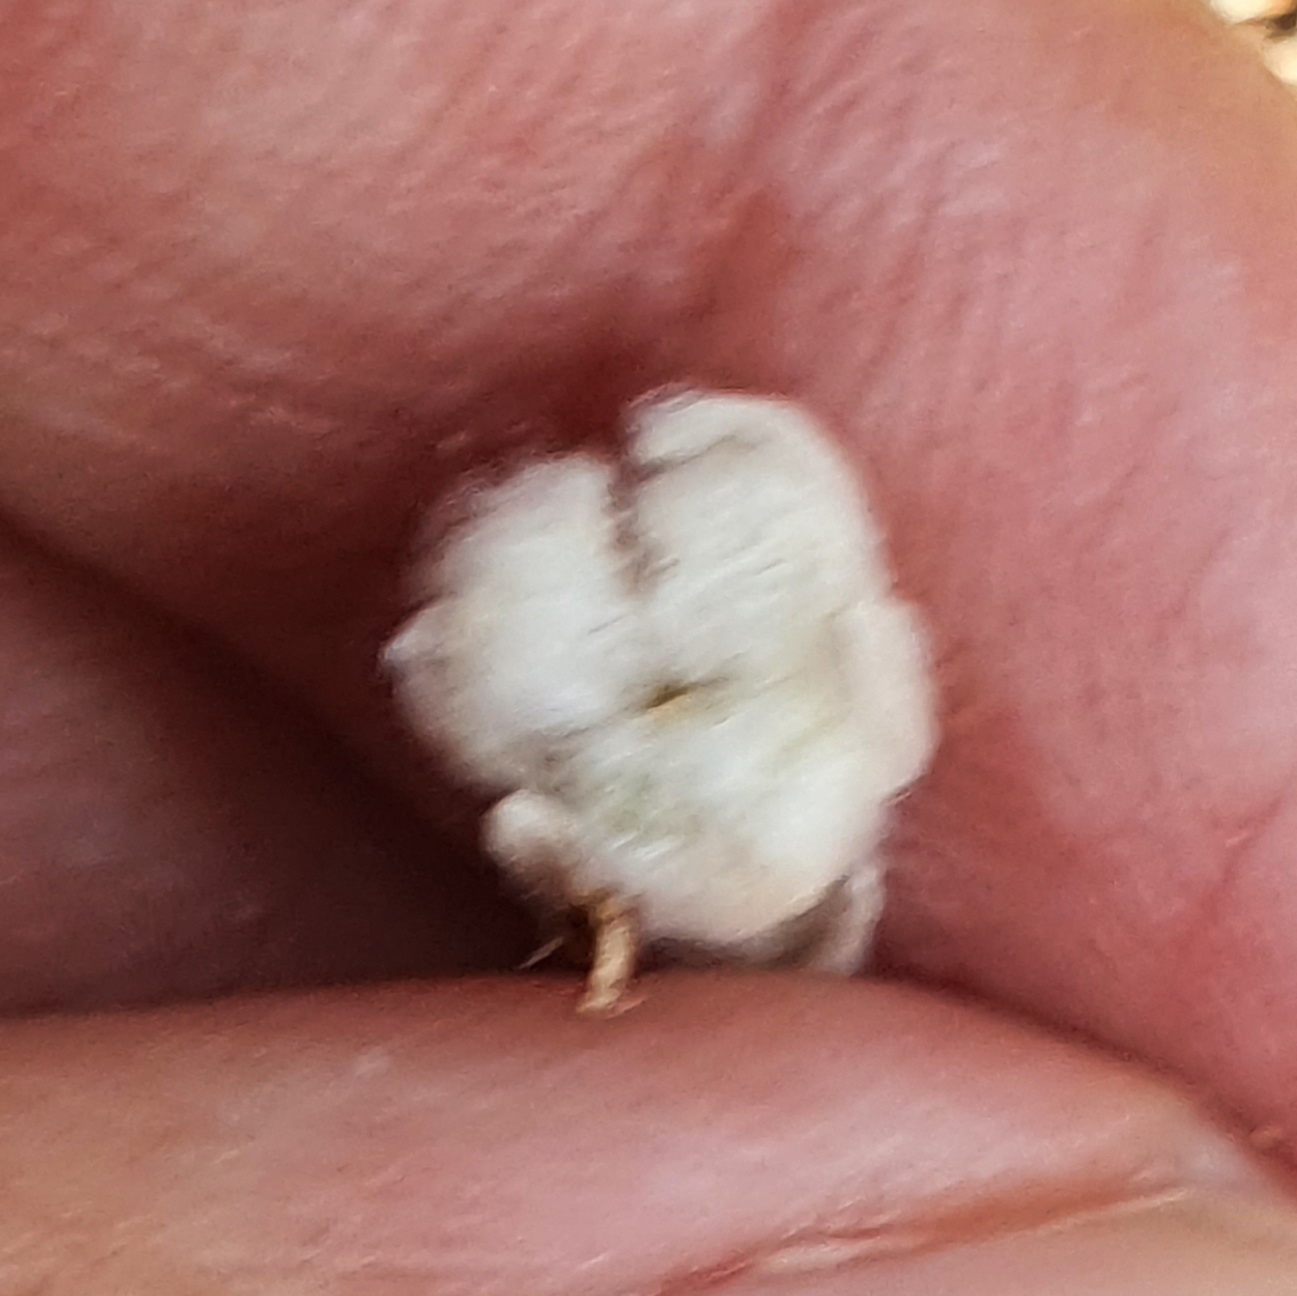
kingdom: Plantae
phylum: Tracheophyta
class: Magnoliopsida
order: Asterales
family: Asteraceae
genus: Bombycilaena
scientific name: Bombycilaena discolor
